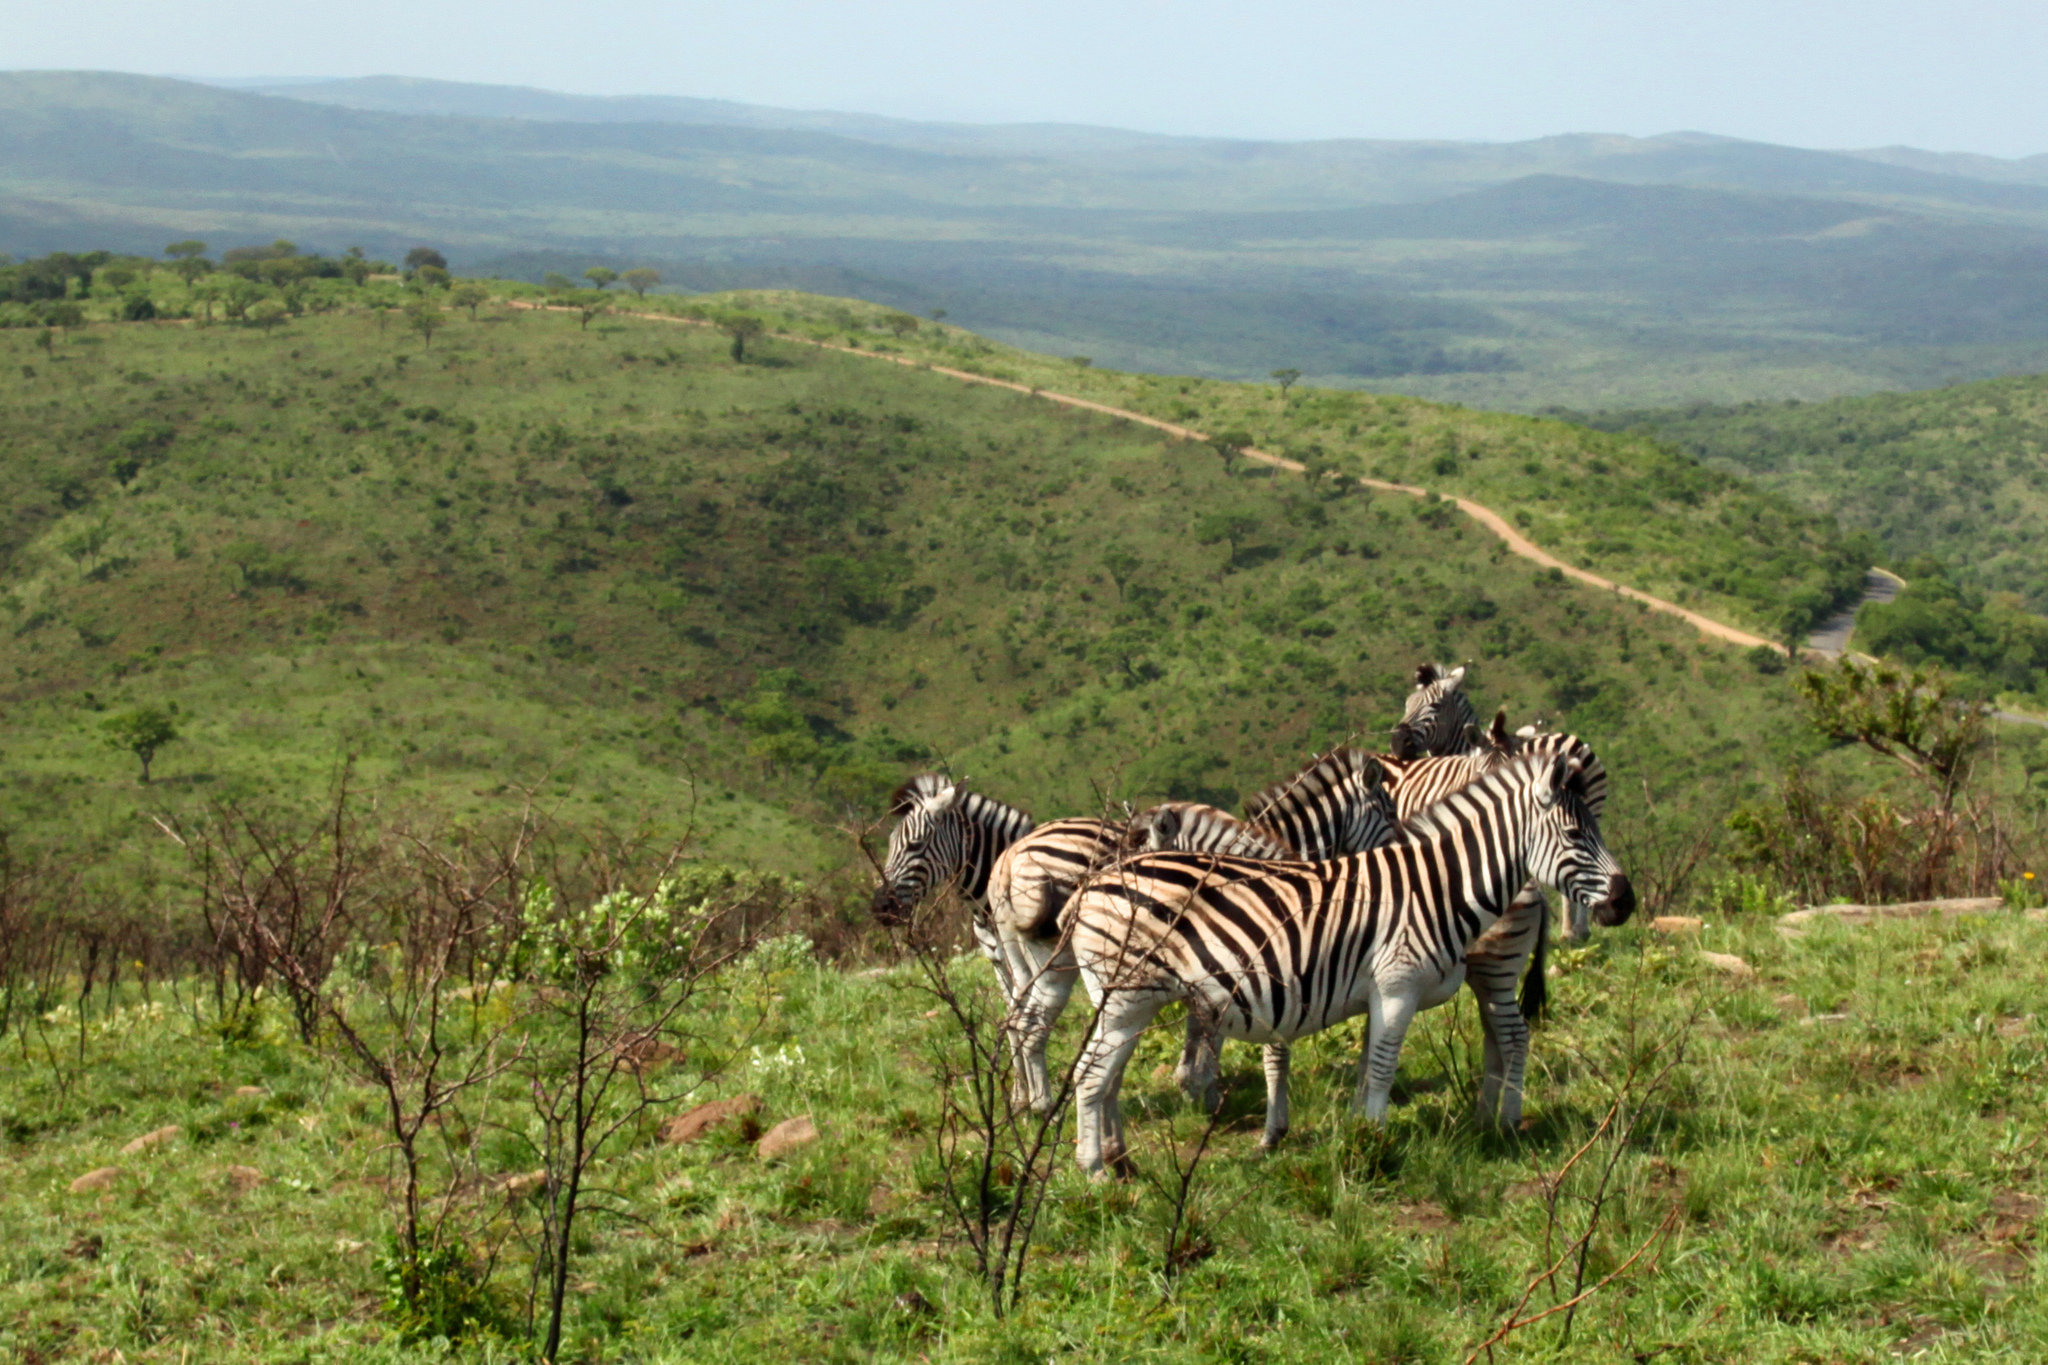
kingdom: Animalia
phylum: Chordata
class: Mammalia
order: Perissodactyla
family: Equidae
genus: Equus
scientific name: Equus quagga
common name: Plains zebra
